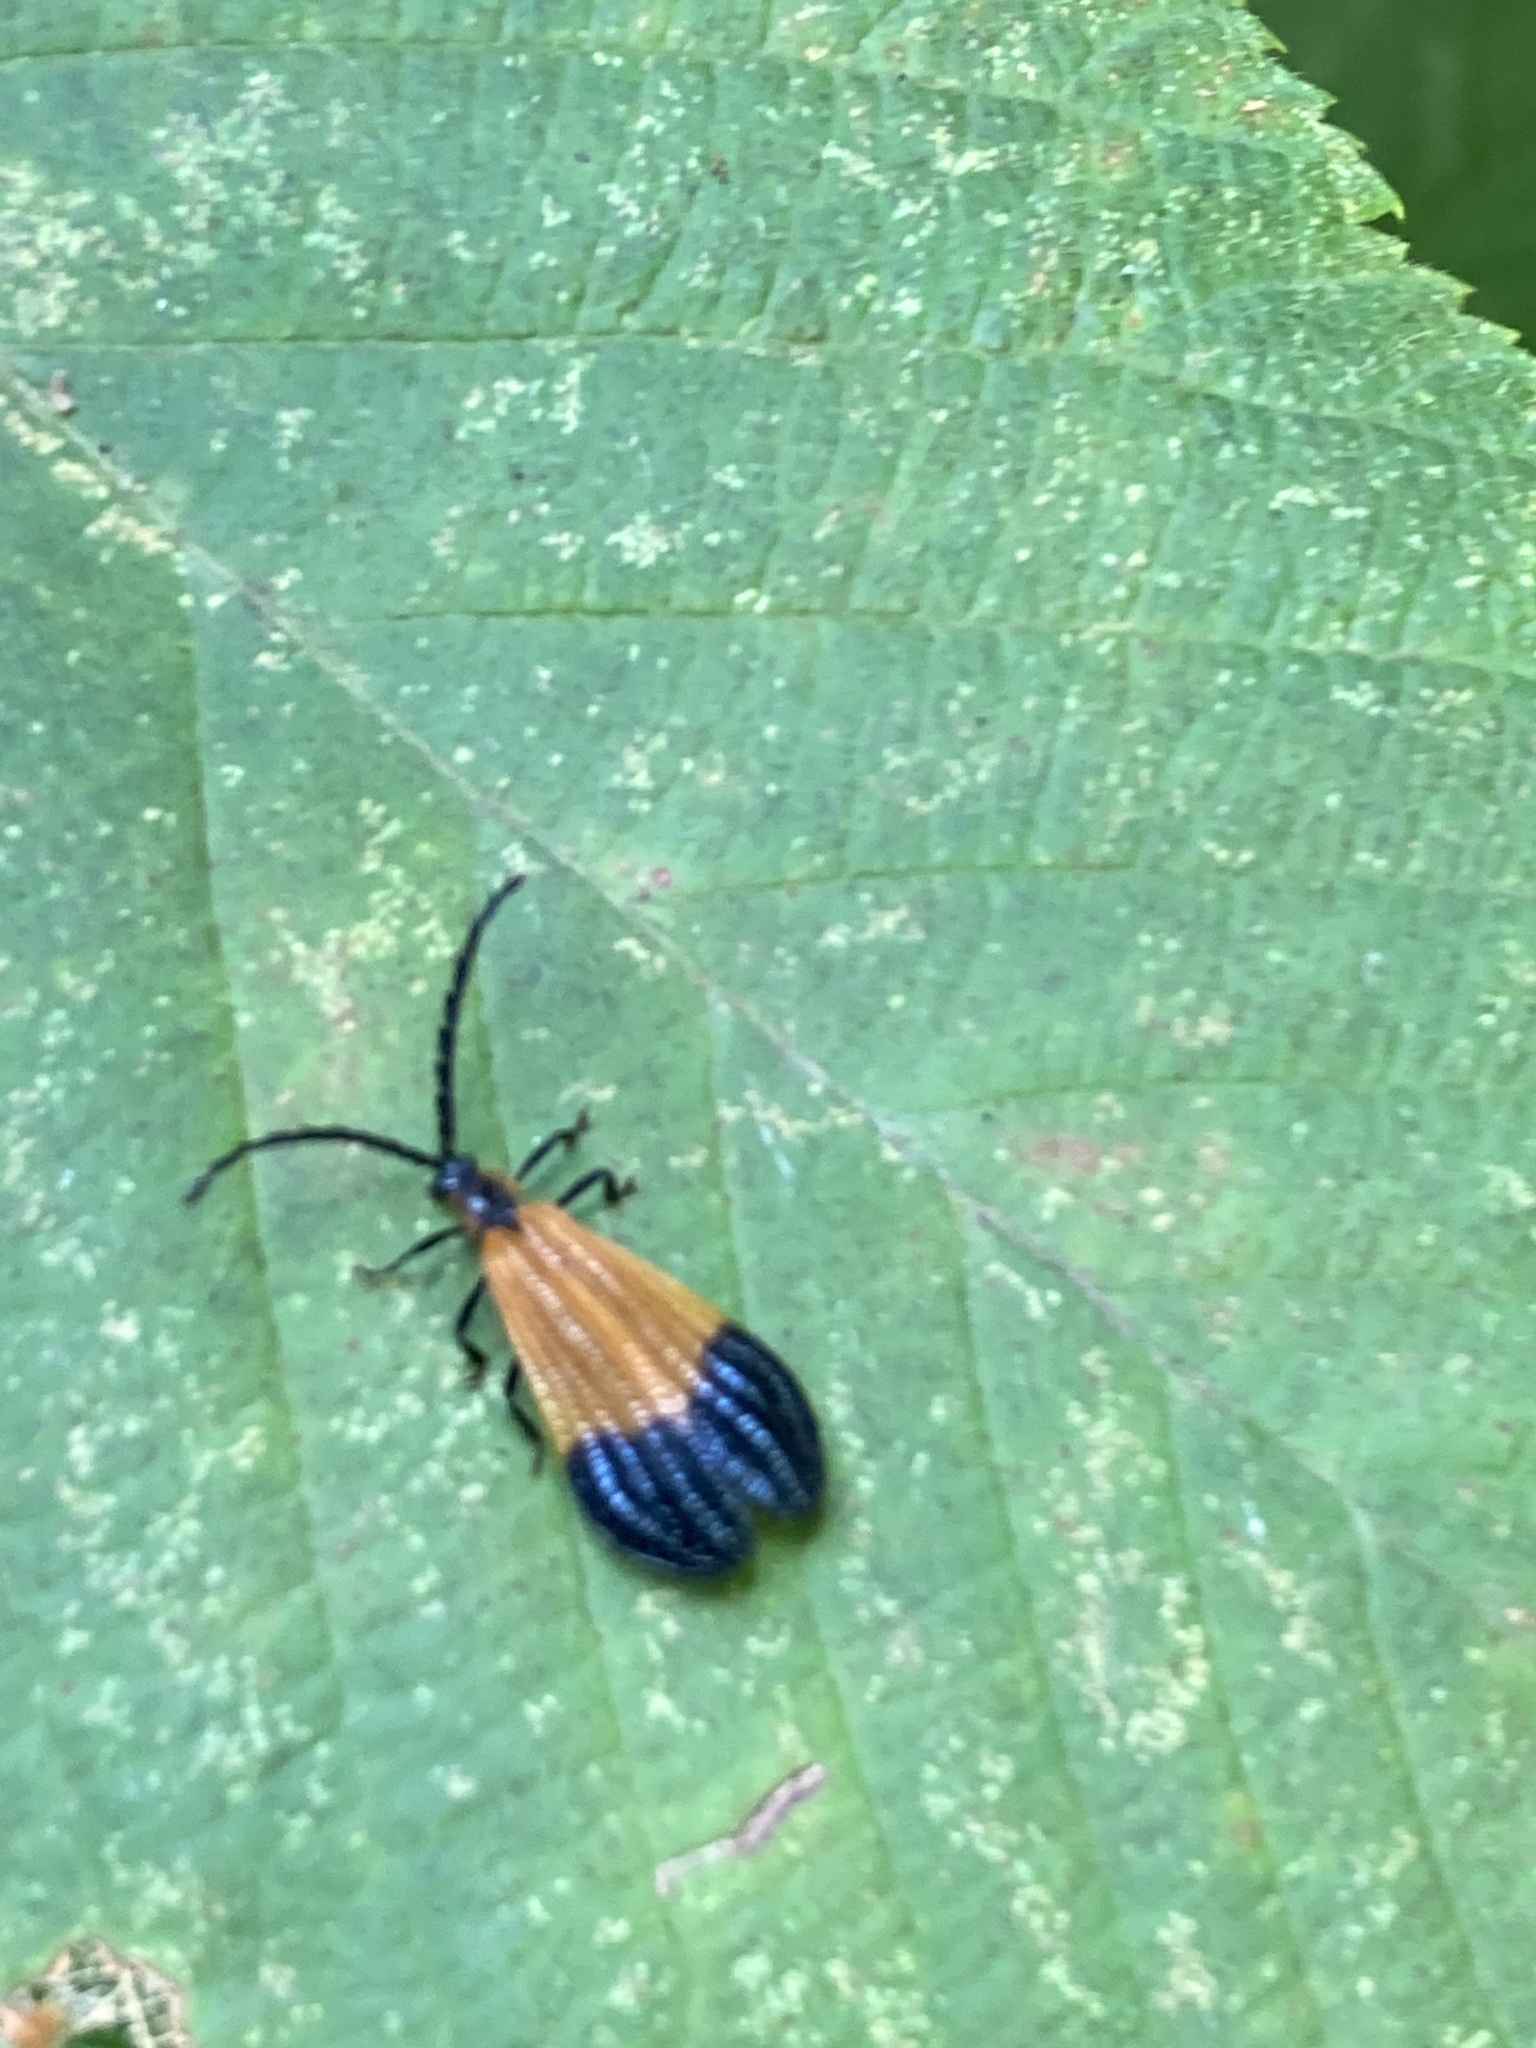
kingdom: Animalia
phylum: Arthropoda
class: Insecta
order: Coleoptera
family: Lycidae
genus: Calopteron
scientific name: Calopteron terminale
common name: End band net-winged beetle
